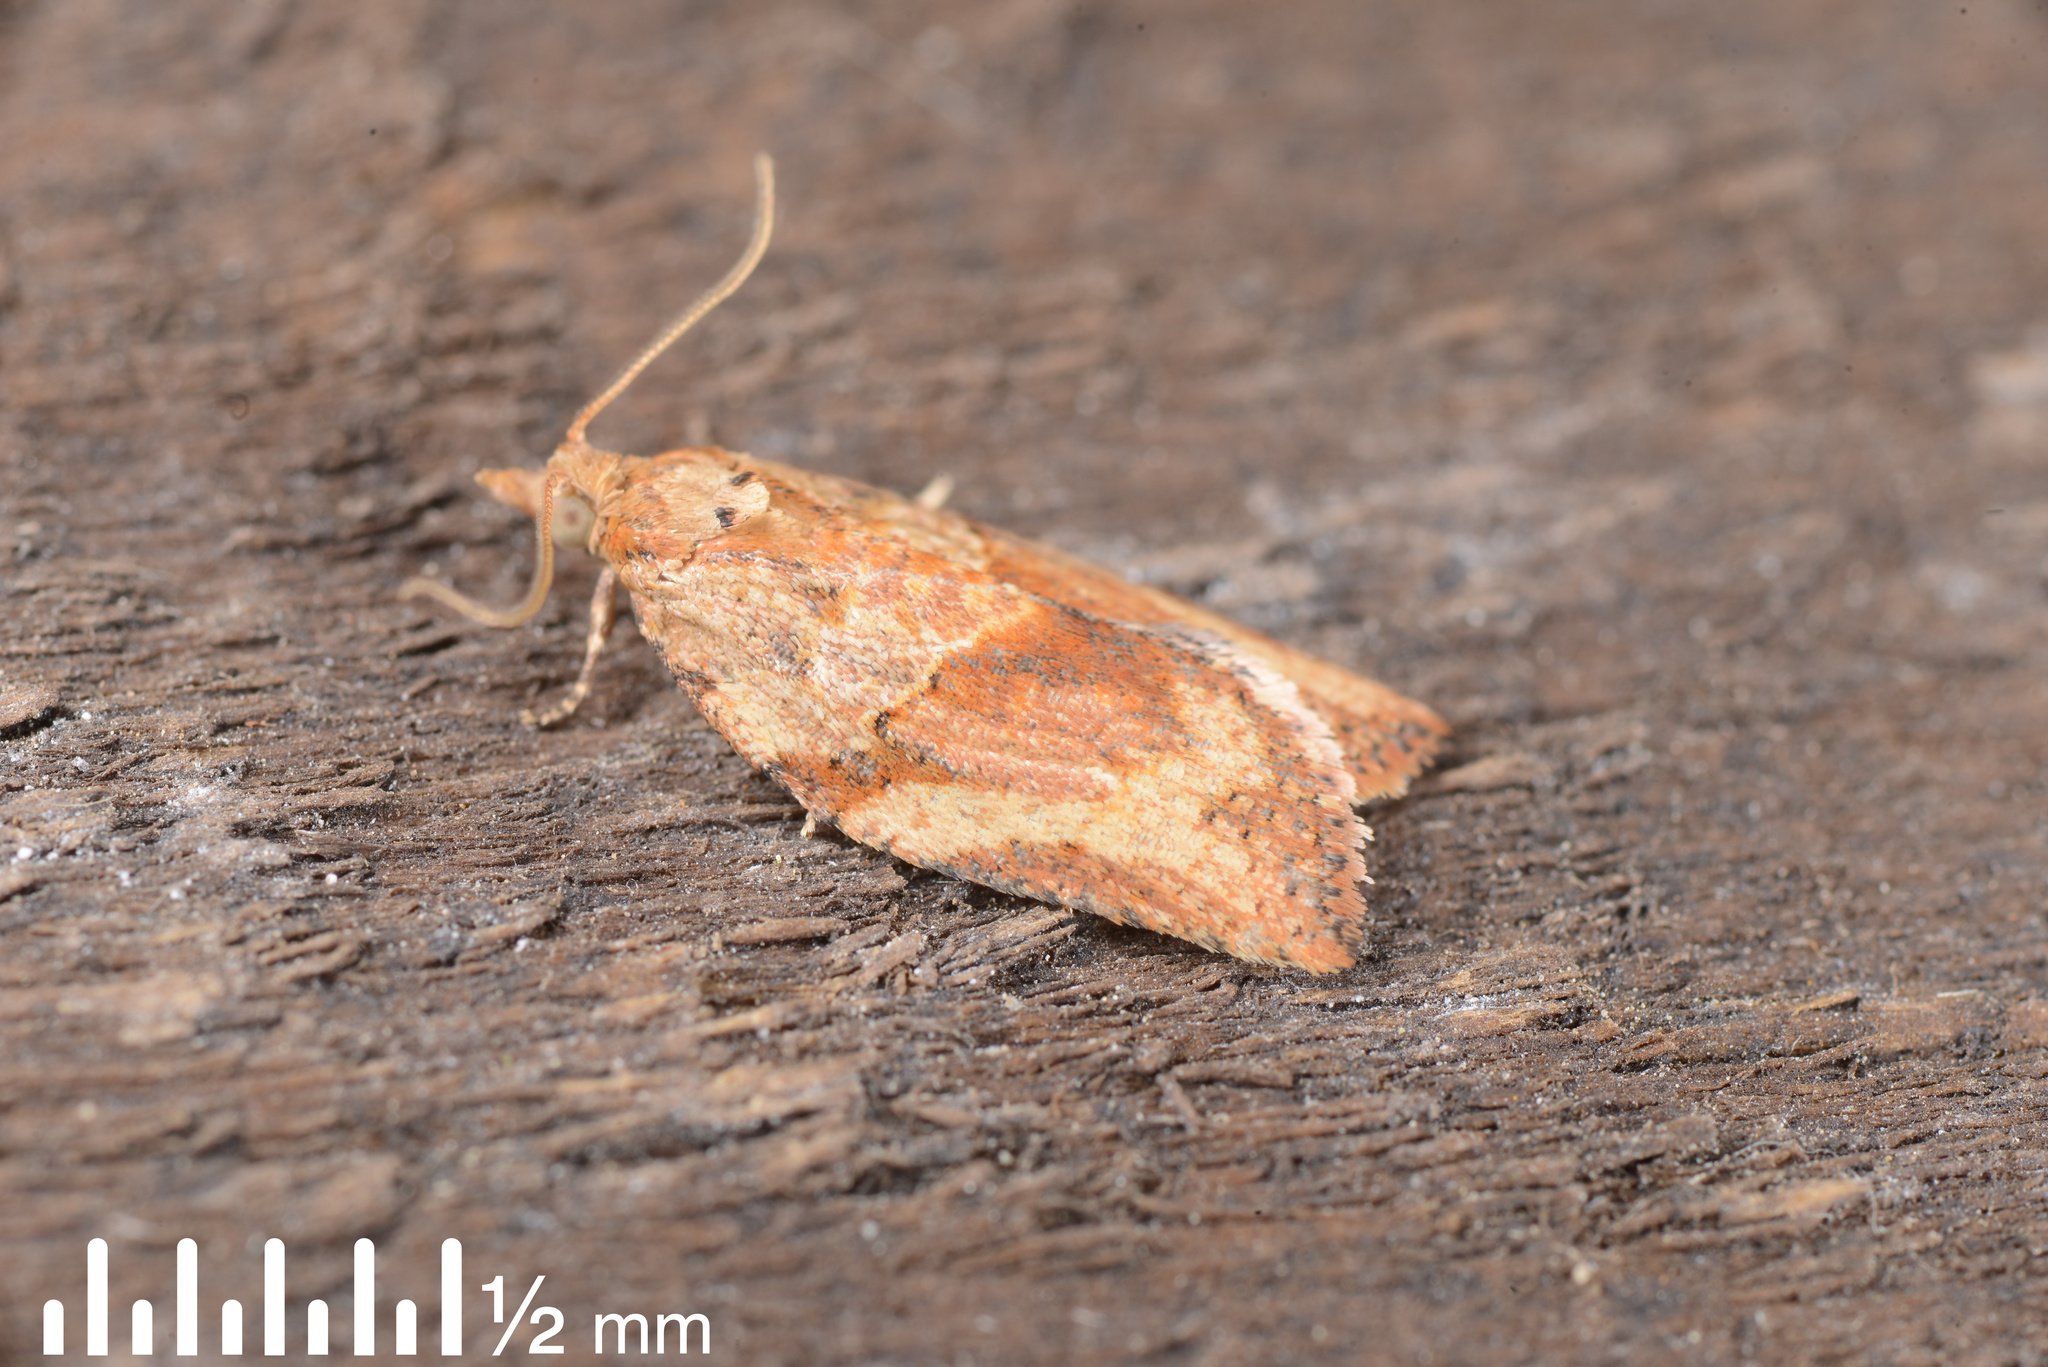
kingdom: Animalia
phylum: Arthropoda
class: Insecta
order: Lepidoptera
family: Tortricidae
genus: Epiphyas
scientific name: Epiphyas postvittana
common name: Light brown apple moth
